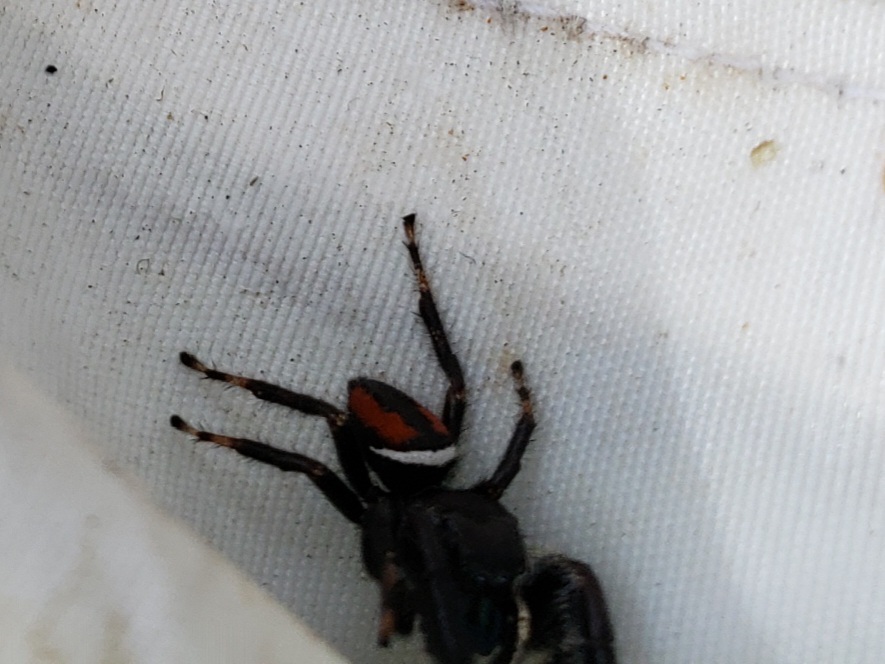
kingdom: Animalia
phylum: Arthropoda
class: Arachnida
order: Araneae
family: Salticidae
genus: Phidippus
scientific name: Phidippus clarus
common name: Brilliant jumping spider
